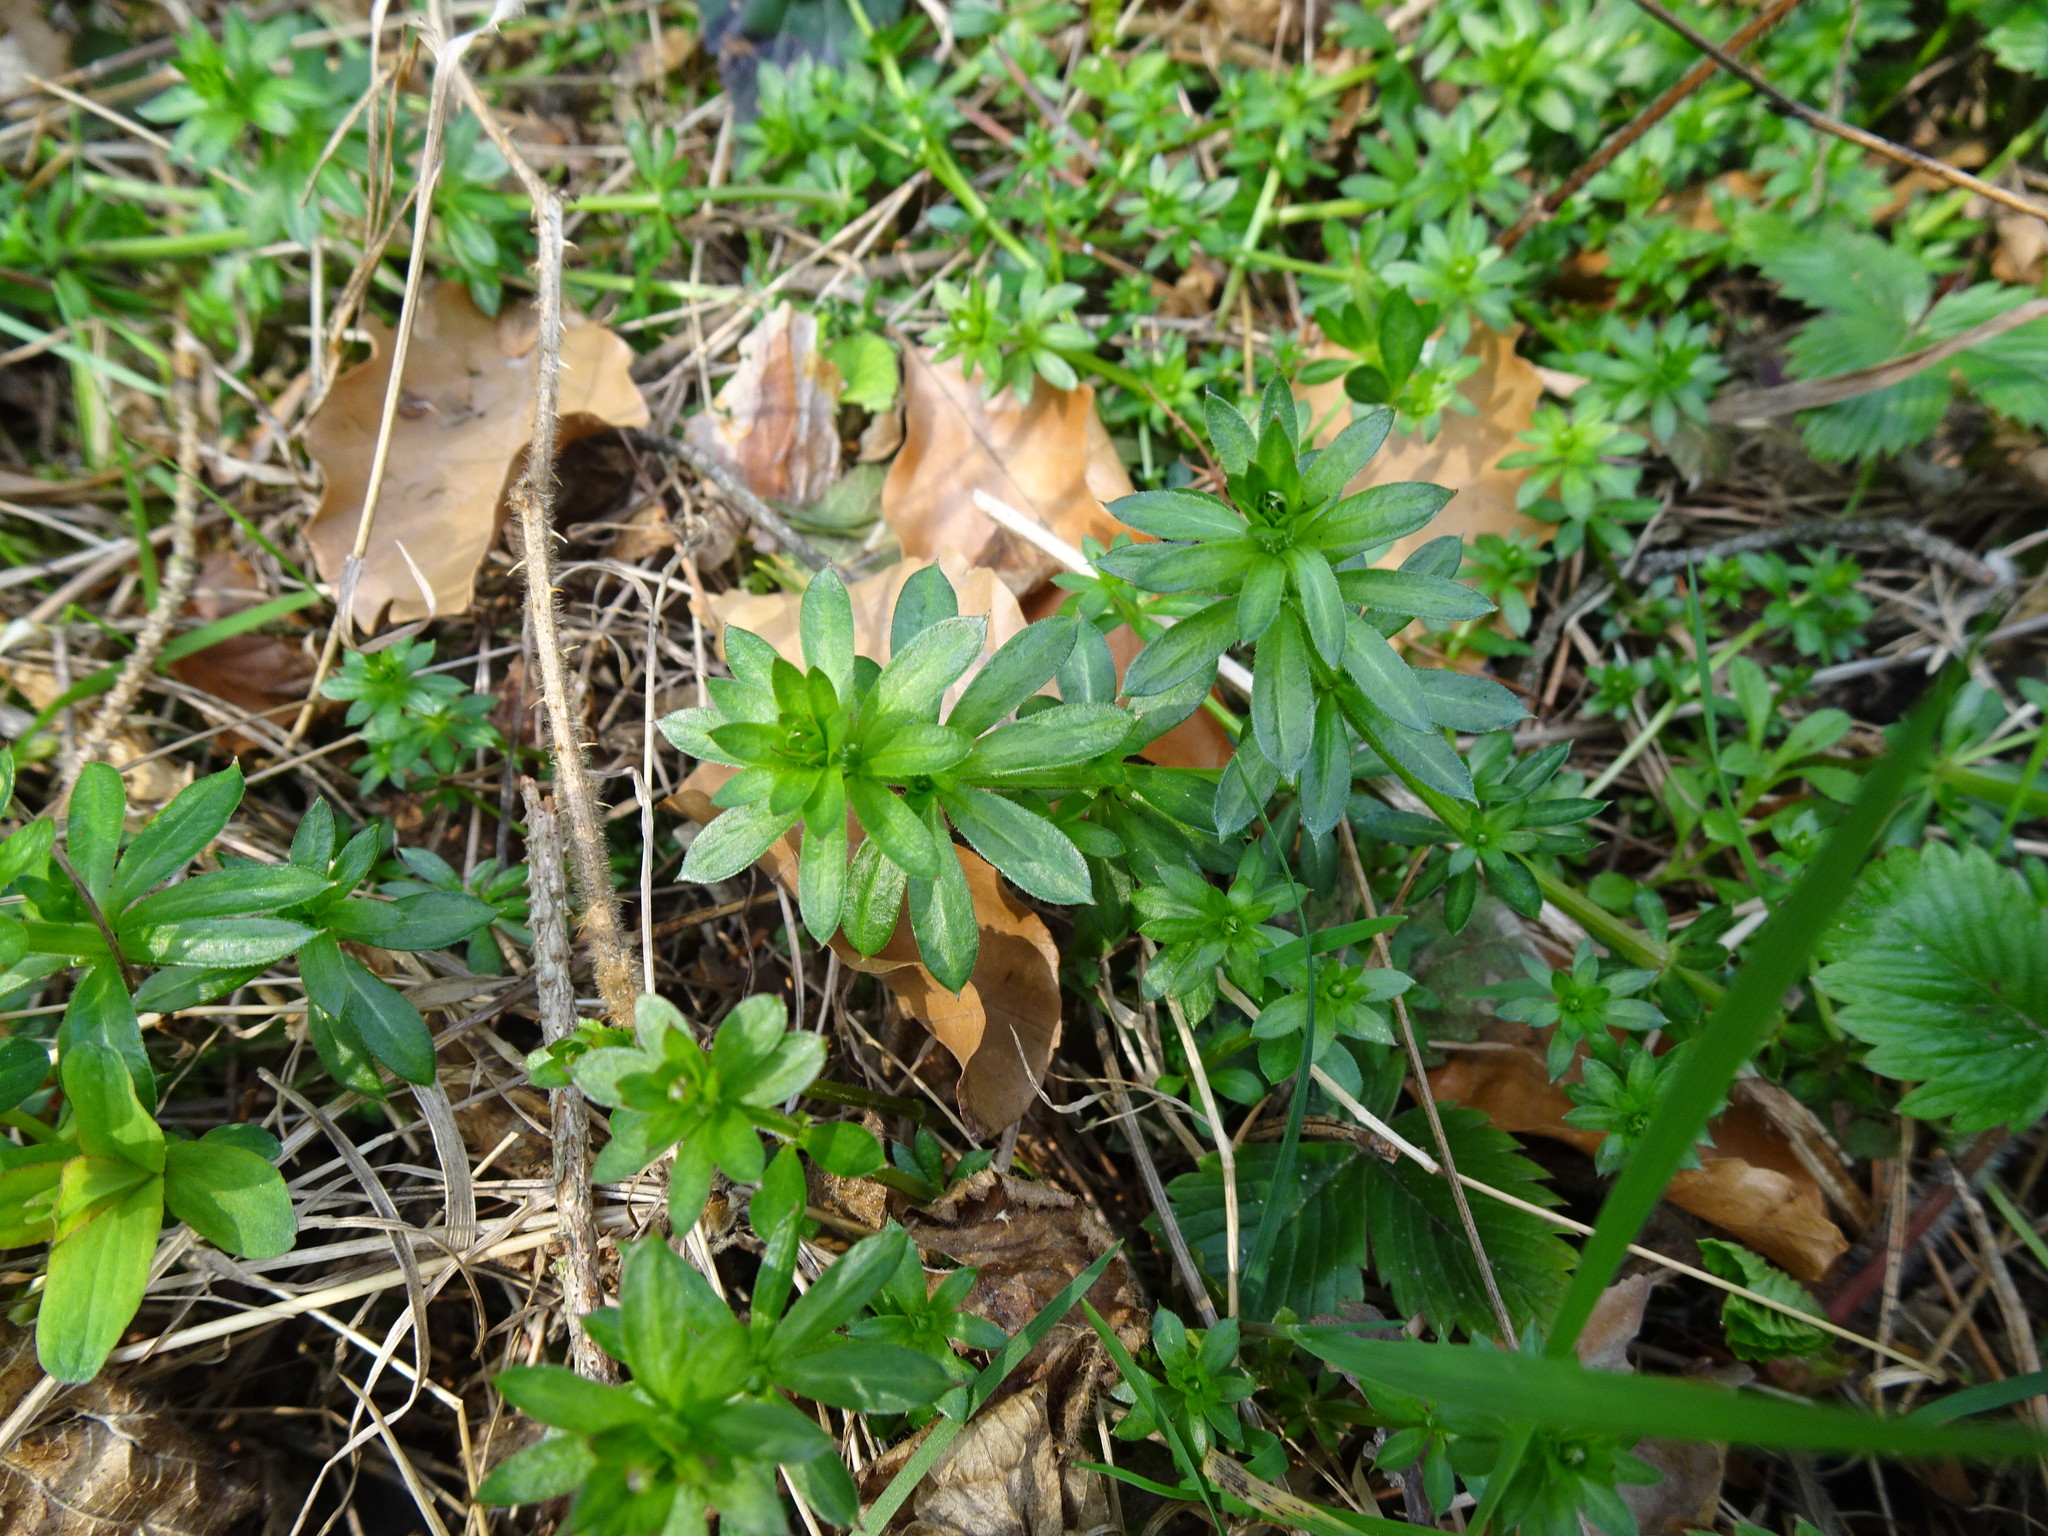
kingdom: Plantae
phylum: Tracheophyta
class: Magnoliopsida
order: Gentianales
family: Rubiaceae
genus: Galium
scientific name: Galium album
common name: White bedstraw
